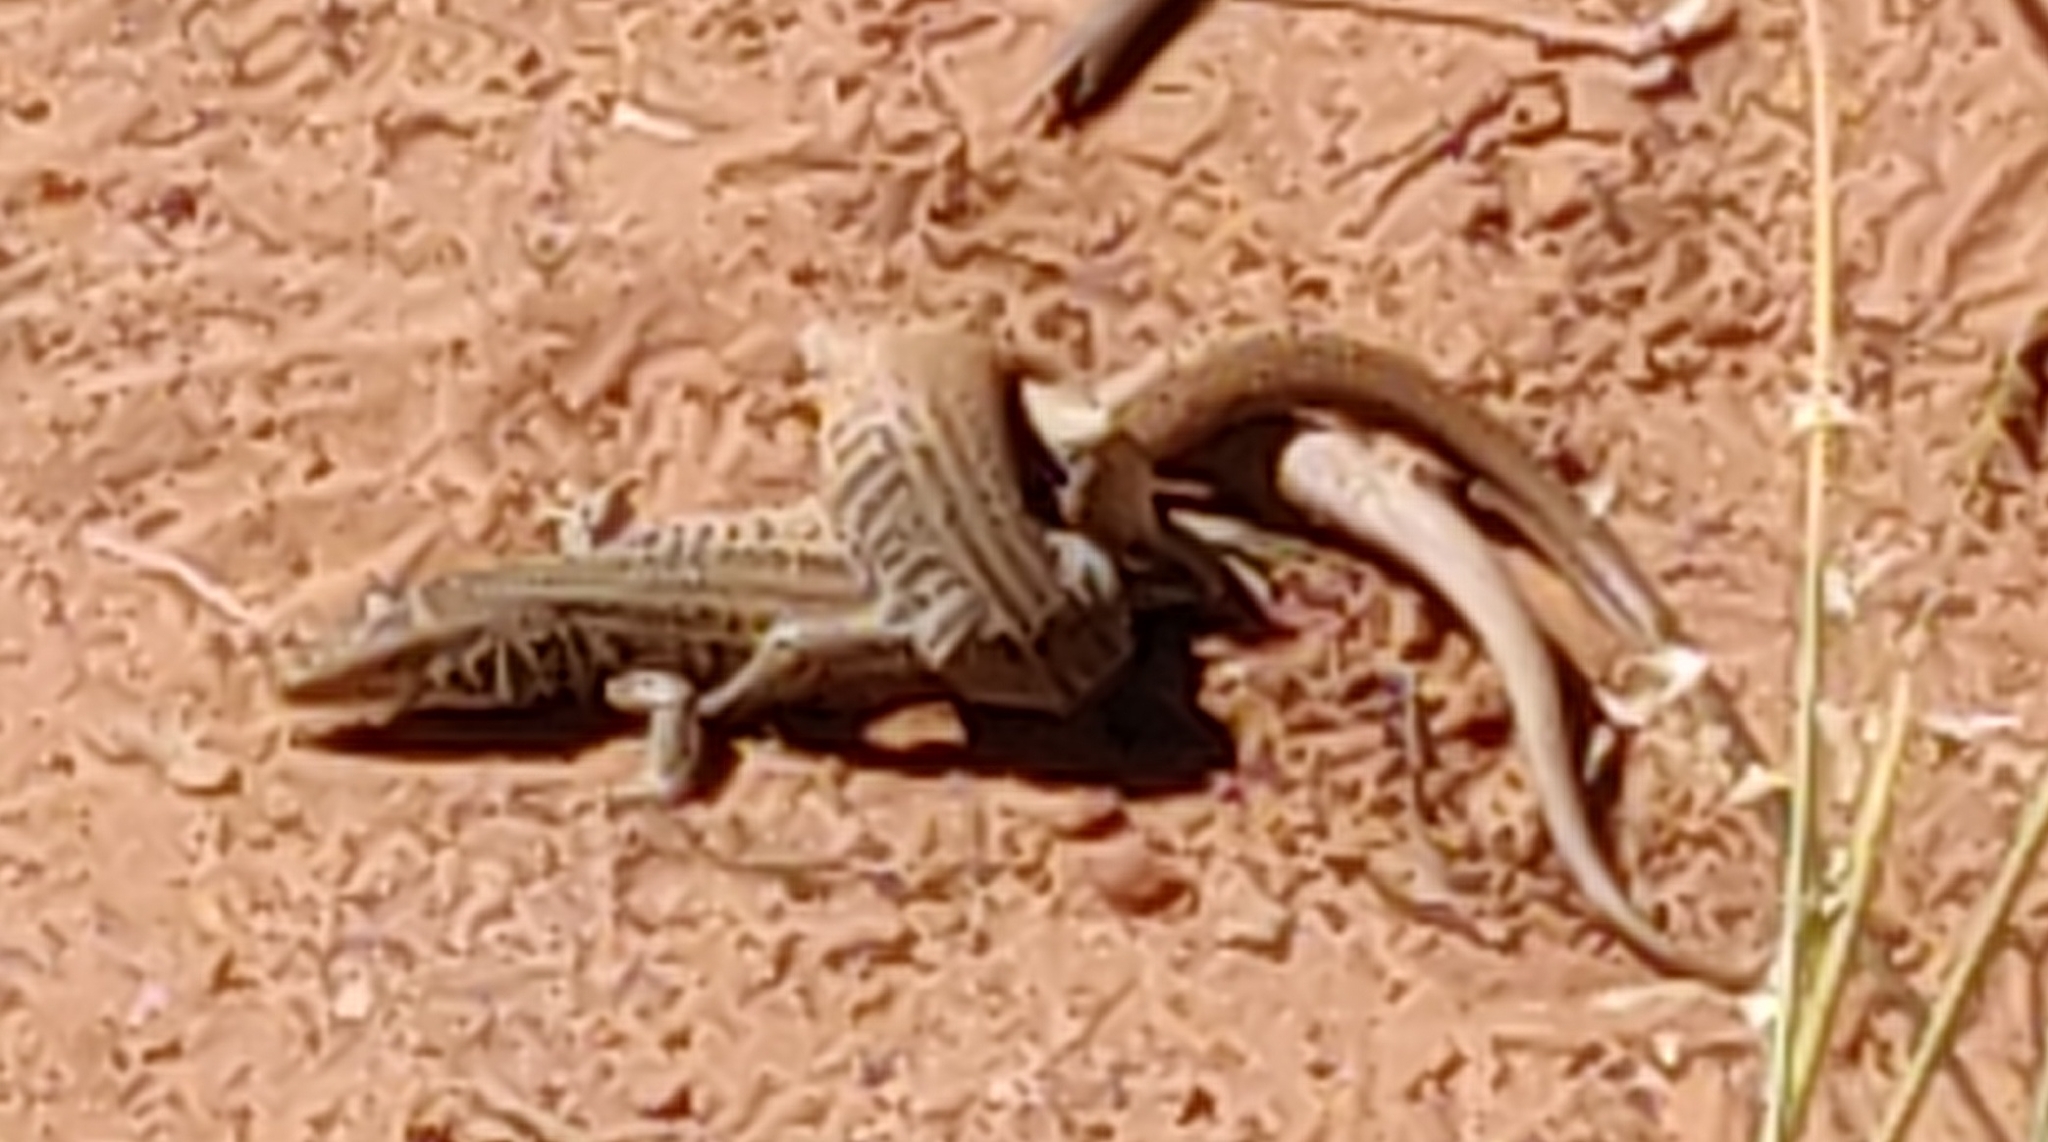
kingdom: Animalia
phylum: Chordata
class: Squamata
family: Teiidae
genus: Aspidoscelis
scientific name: Aspidoscelis tigris
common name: Tiger whiptail
